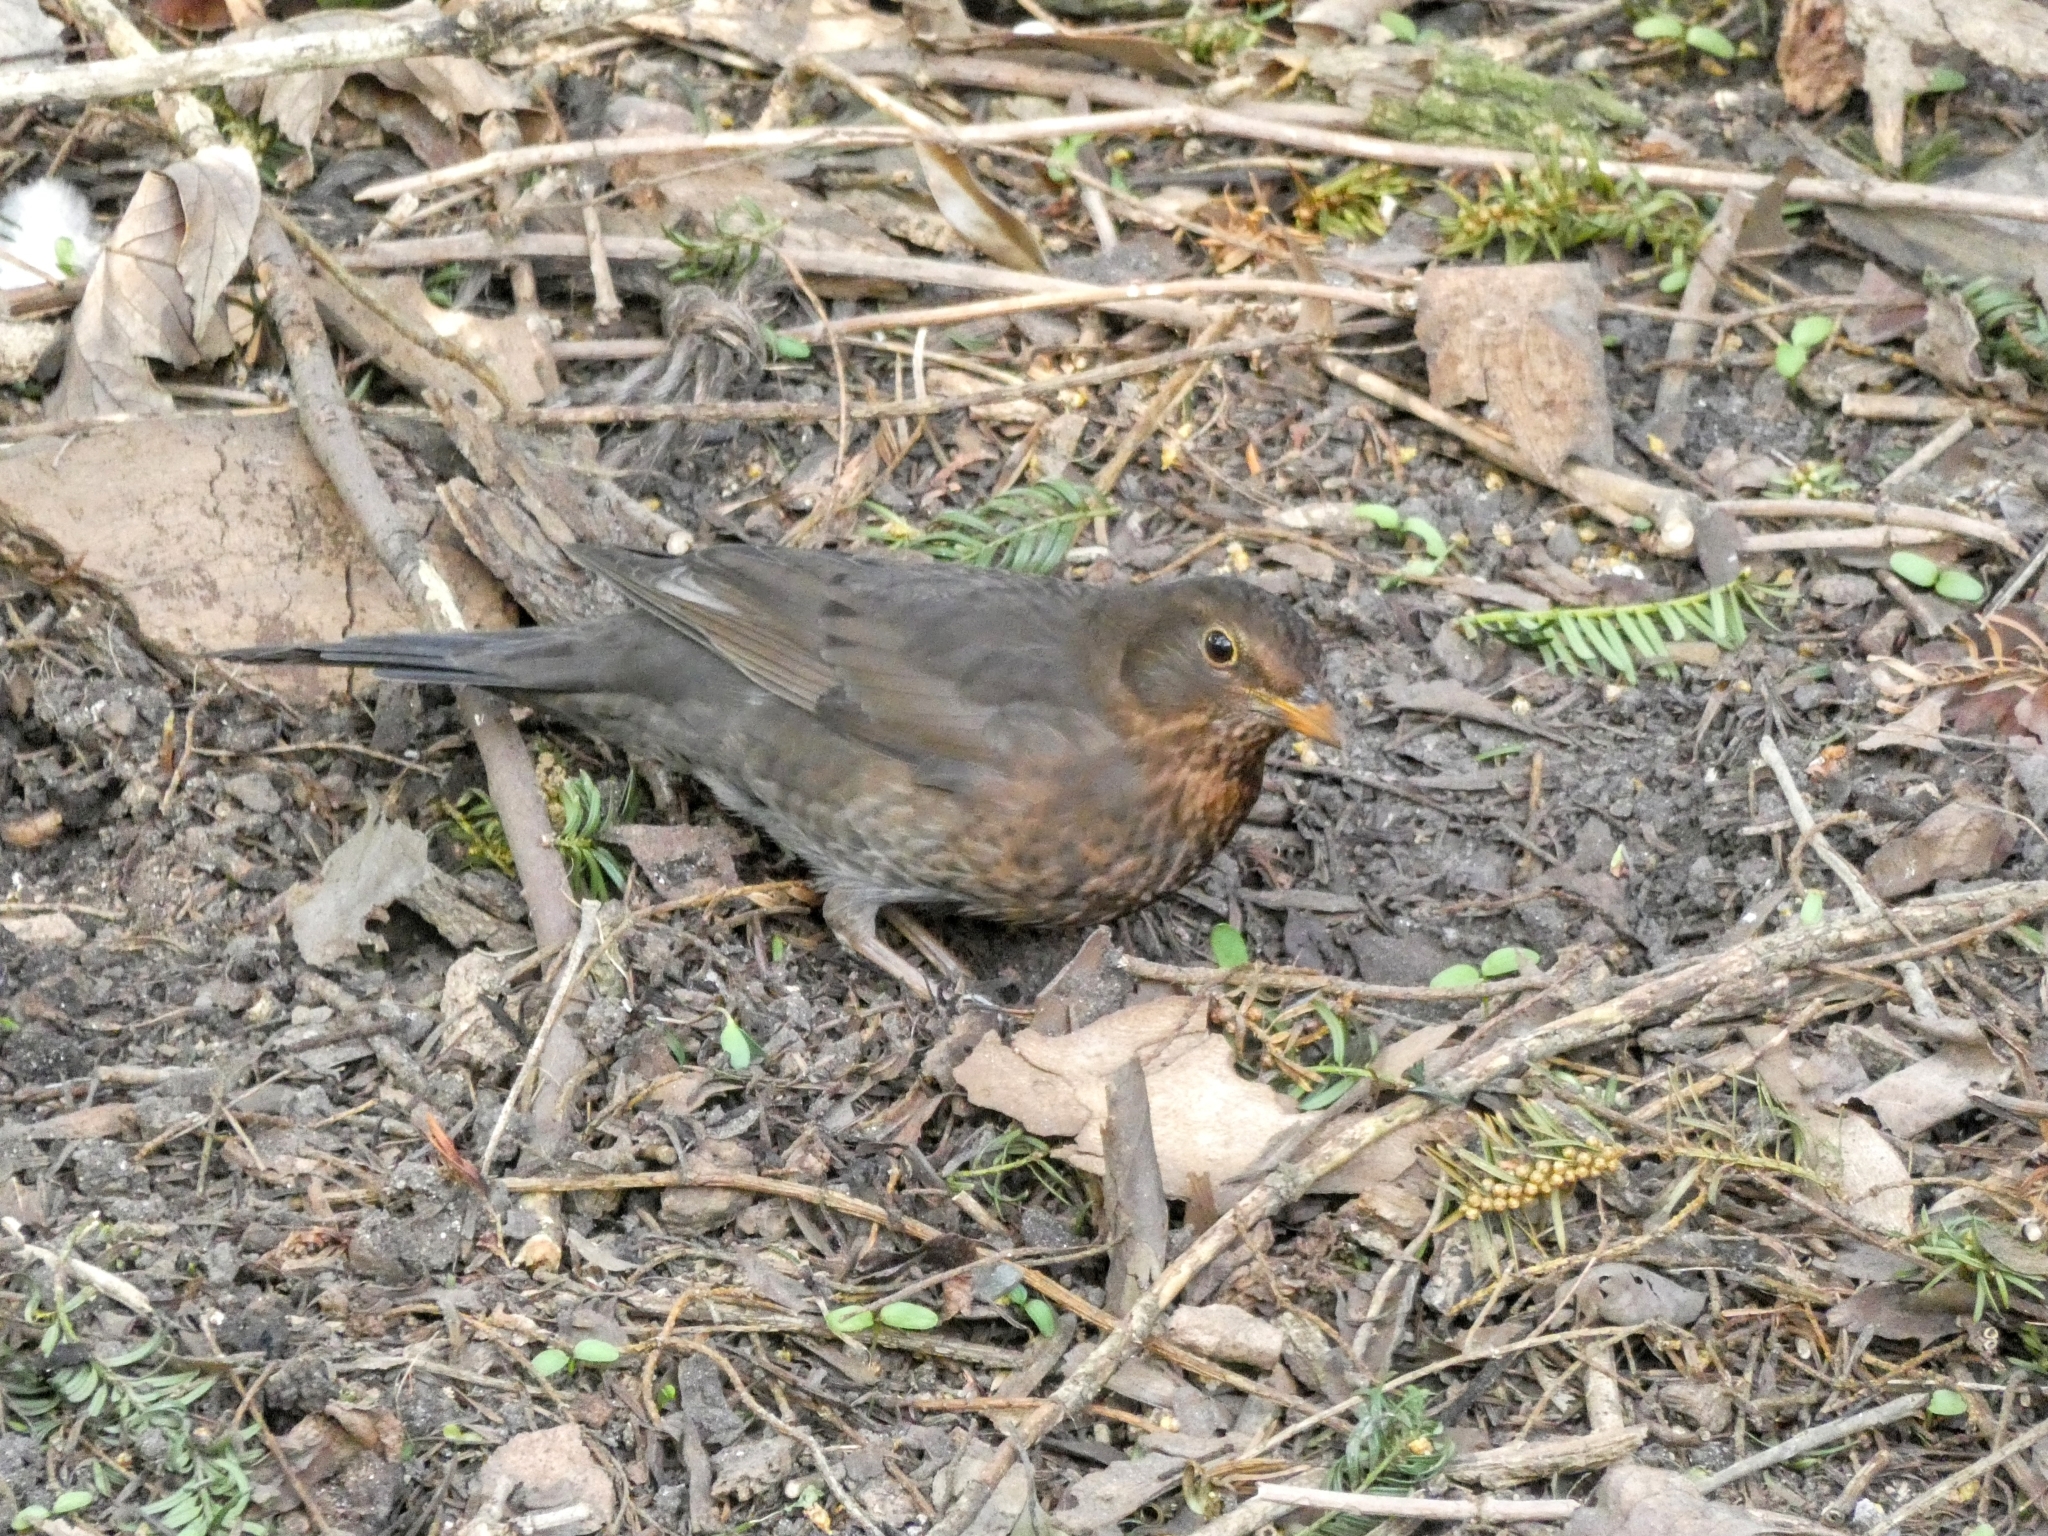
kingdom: Animalia
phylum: Chordata
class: Aves
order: Passeriformes
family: Turdidae
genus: Turdus
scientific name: Turdus merula
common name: Common blackbird
